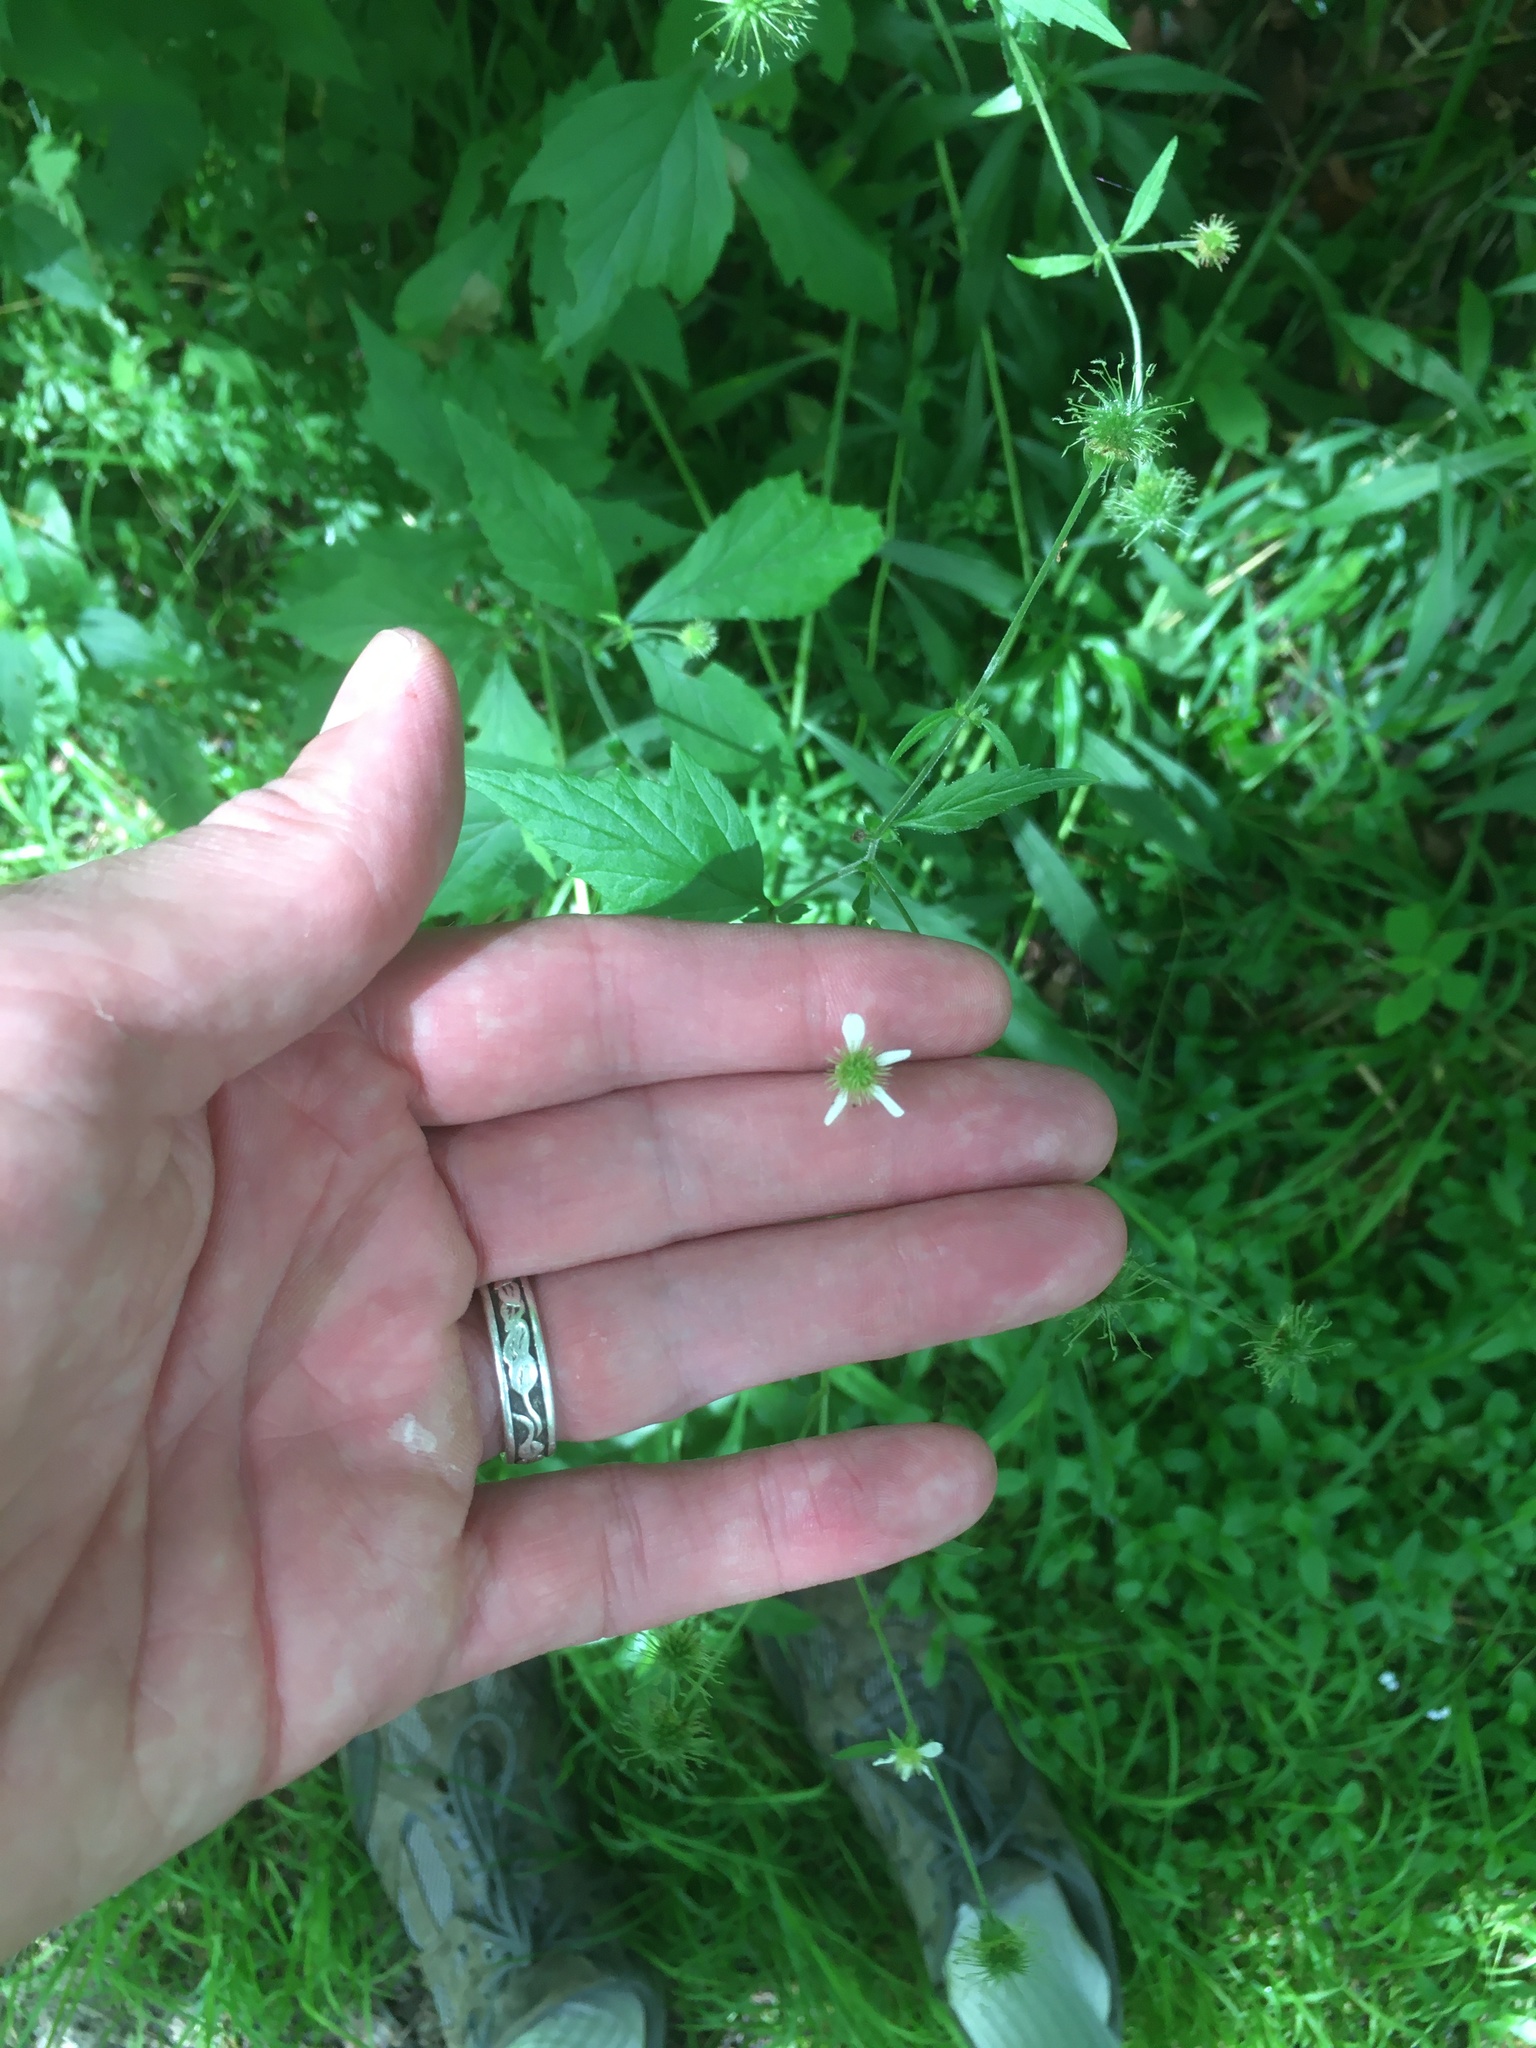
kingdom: Plantae
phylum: Tracheophyta
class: Magnoliopsida
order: Rosales
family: Rosaceae
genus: Geum
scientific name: Geum canadense
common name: White avens
